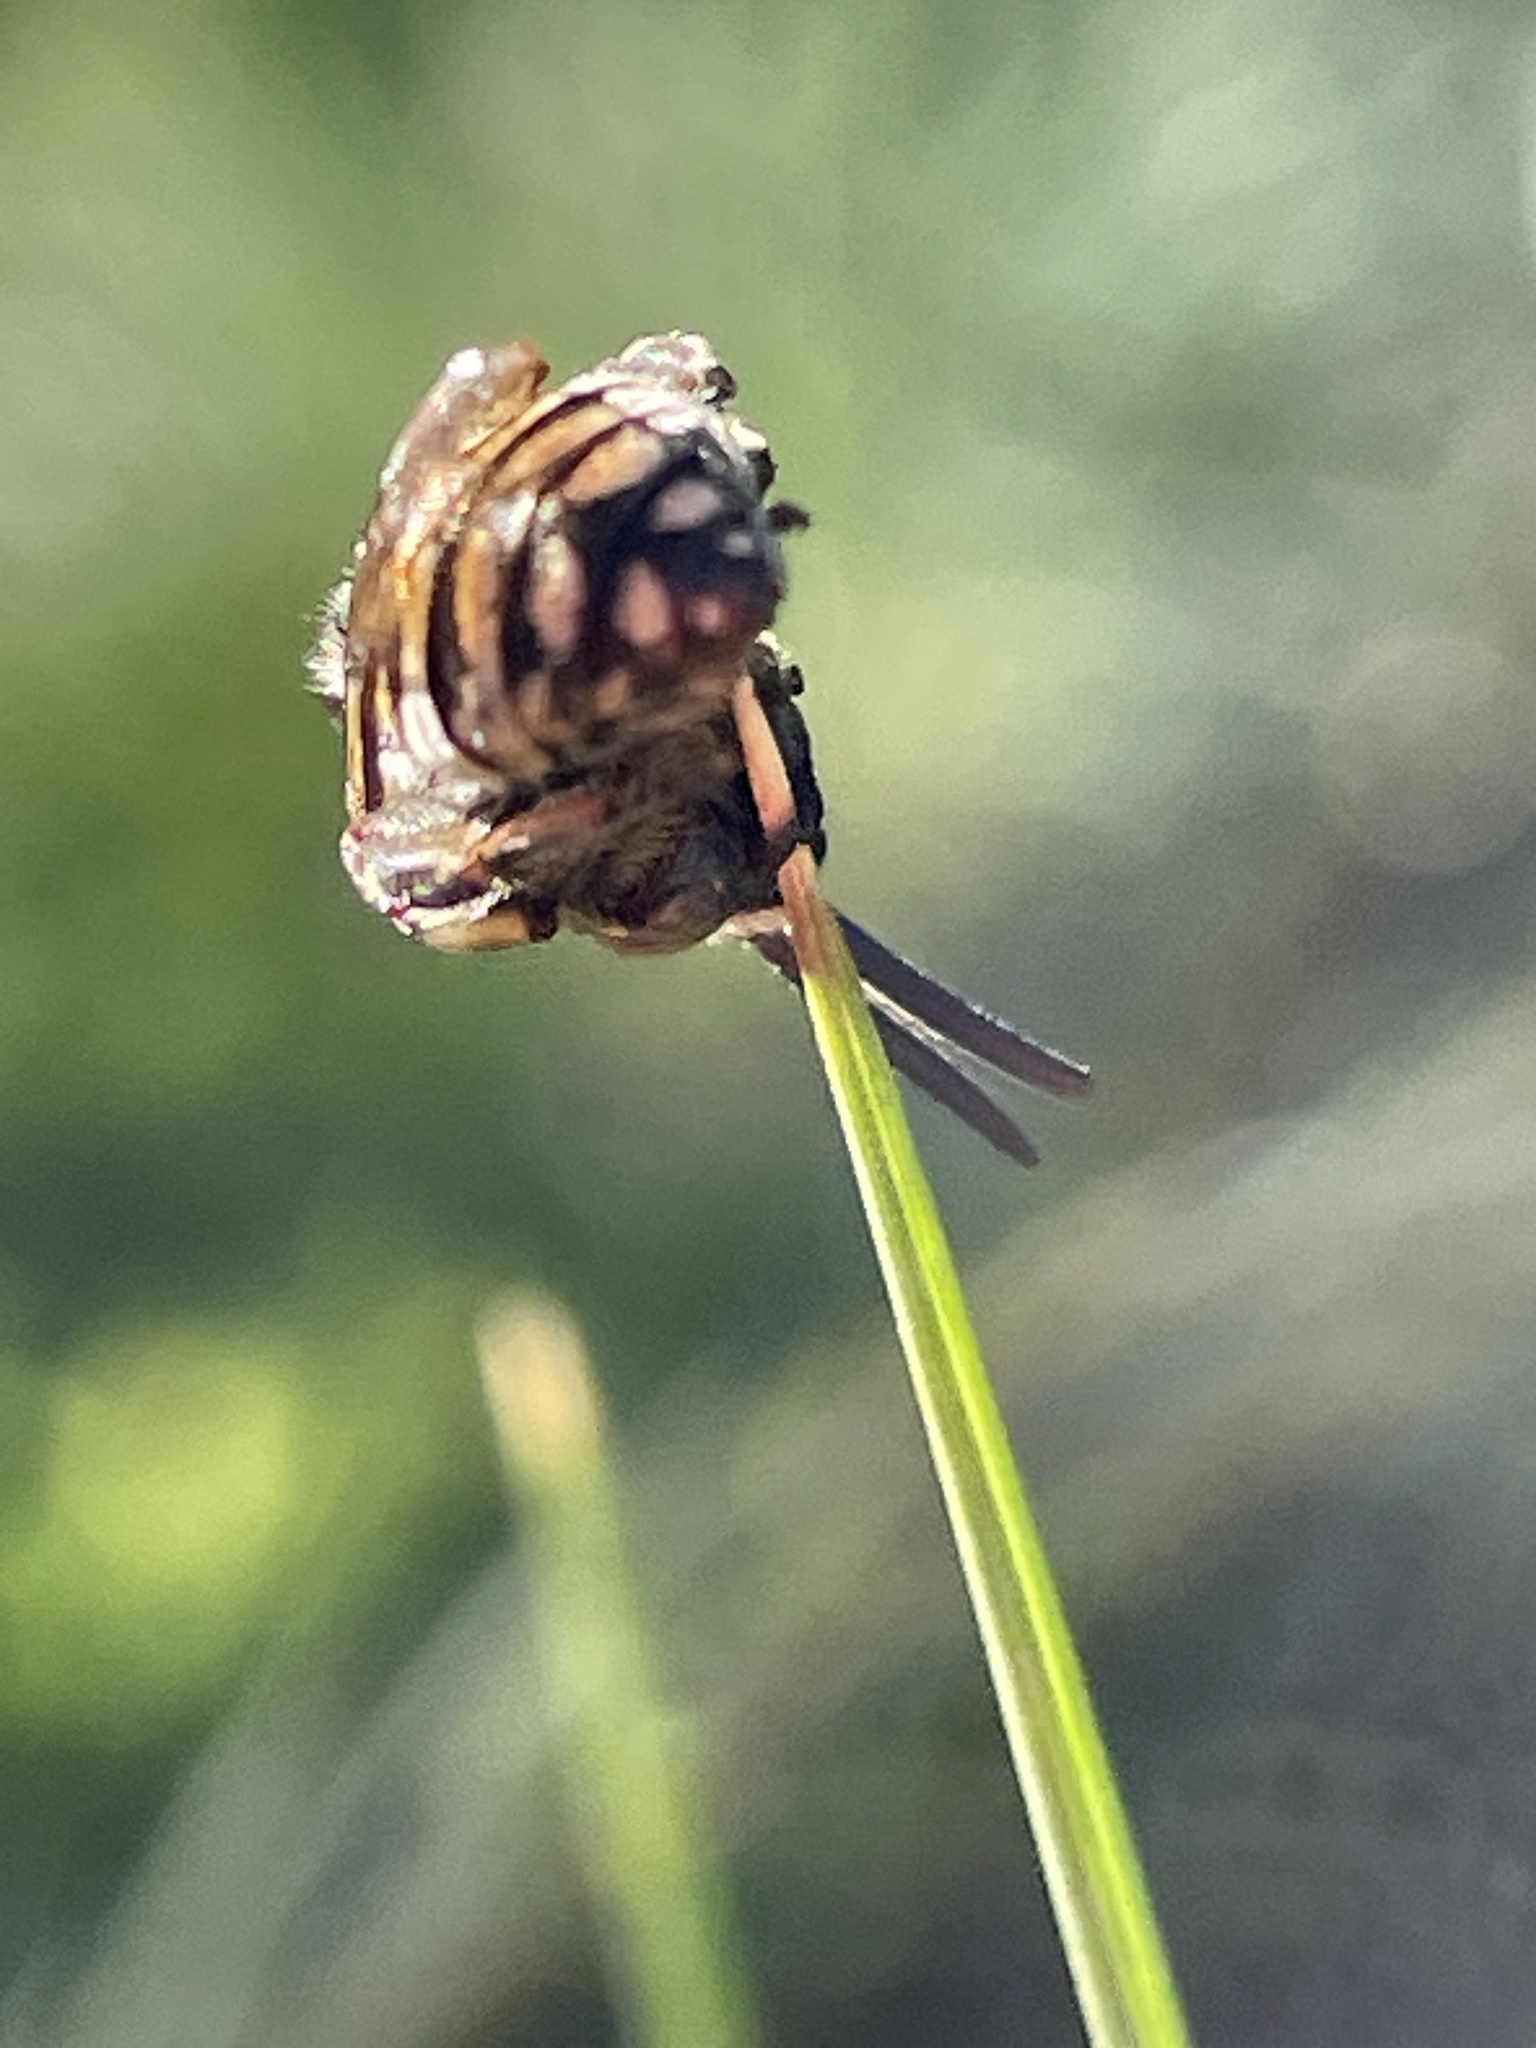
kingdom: Animalia
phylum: Arthropoda
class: Insecta
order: Hymenoptera
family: Apidae
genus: Brachymelecta
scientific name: Brachymelecta californica
